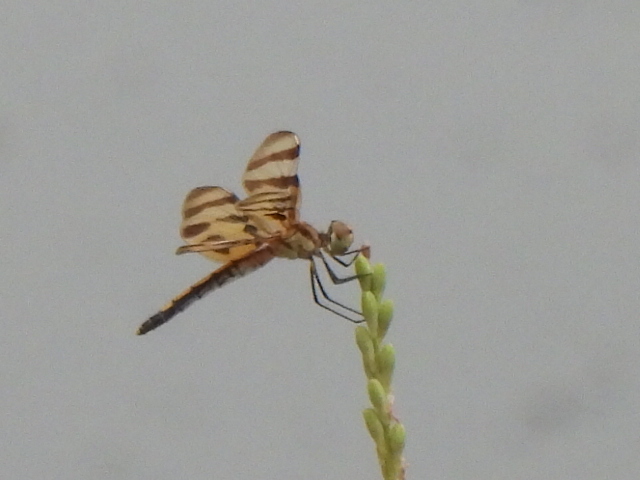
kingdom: Animalia
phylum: Arthropoda
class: Insecta
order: Odonata
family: Libellulidae
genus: Celithemis
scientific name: Celithemis eponina
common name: Halloween pennant
